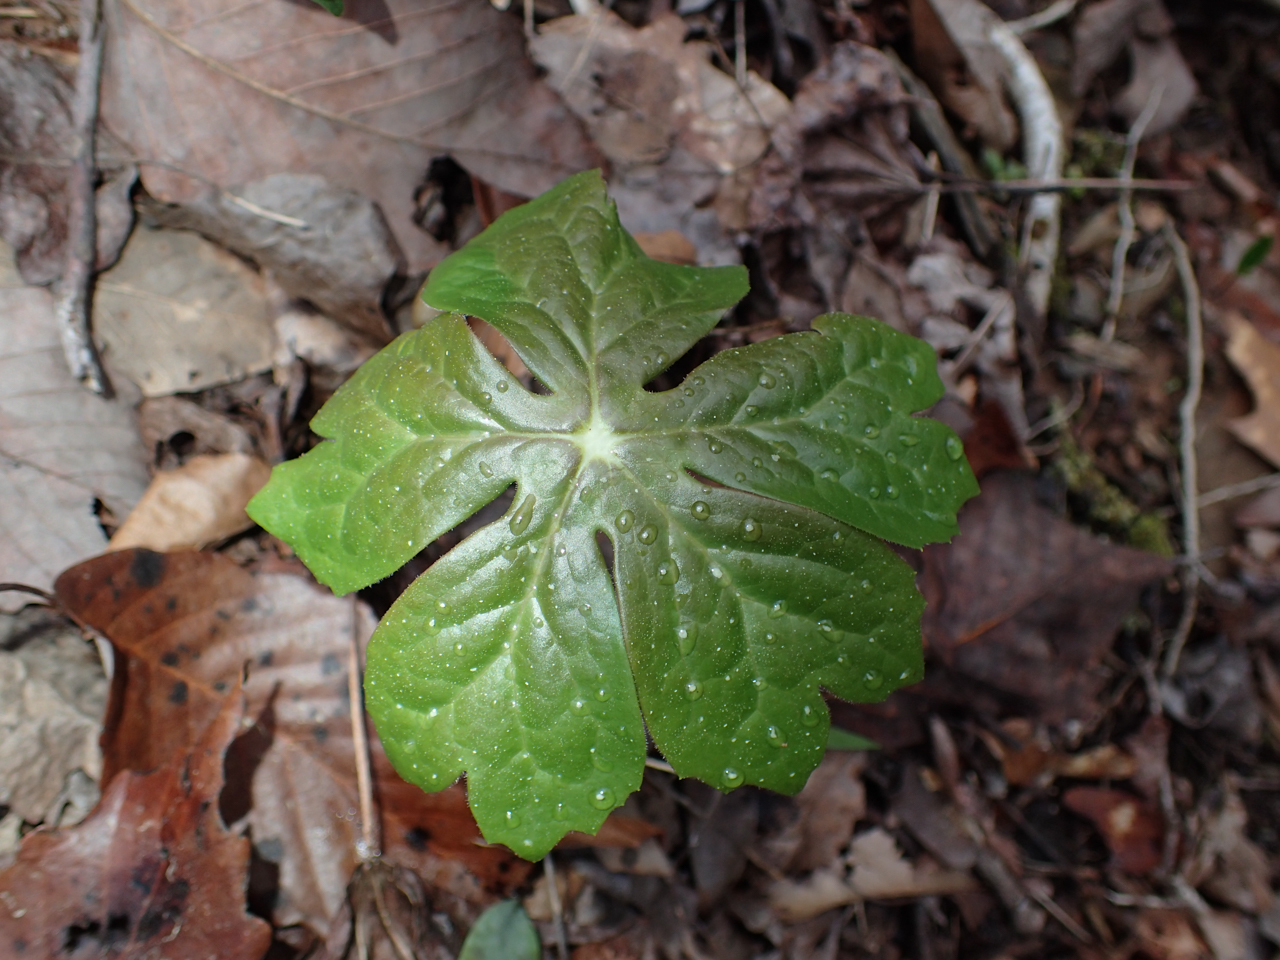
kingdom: Plantae
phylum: Tracheophyta
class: Magnoliopsida
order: Ranunculales
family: Berberidaceae
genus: Podophyllum
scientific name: Podophyllum peltatum
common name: Wild mandrake
